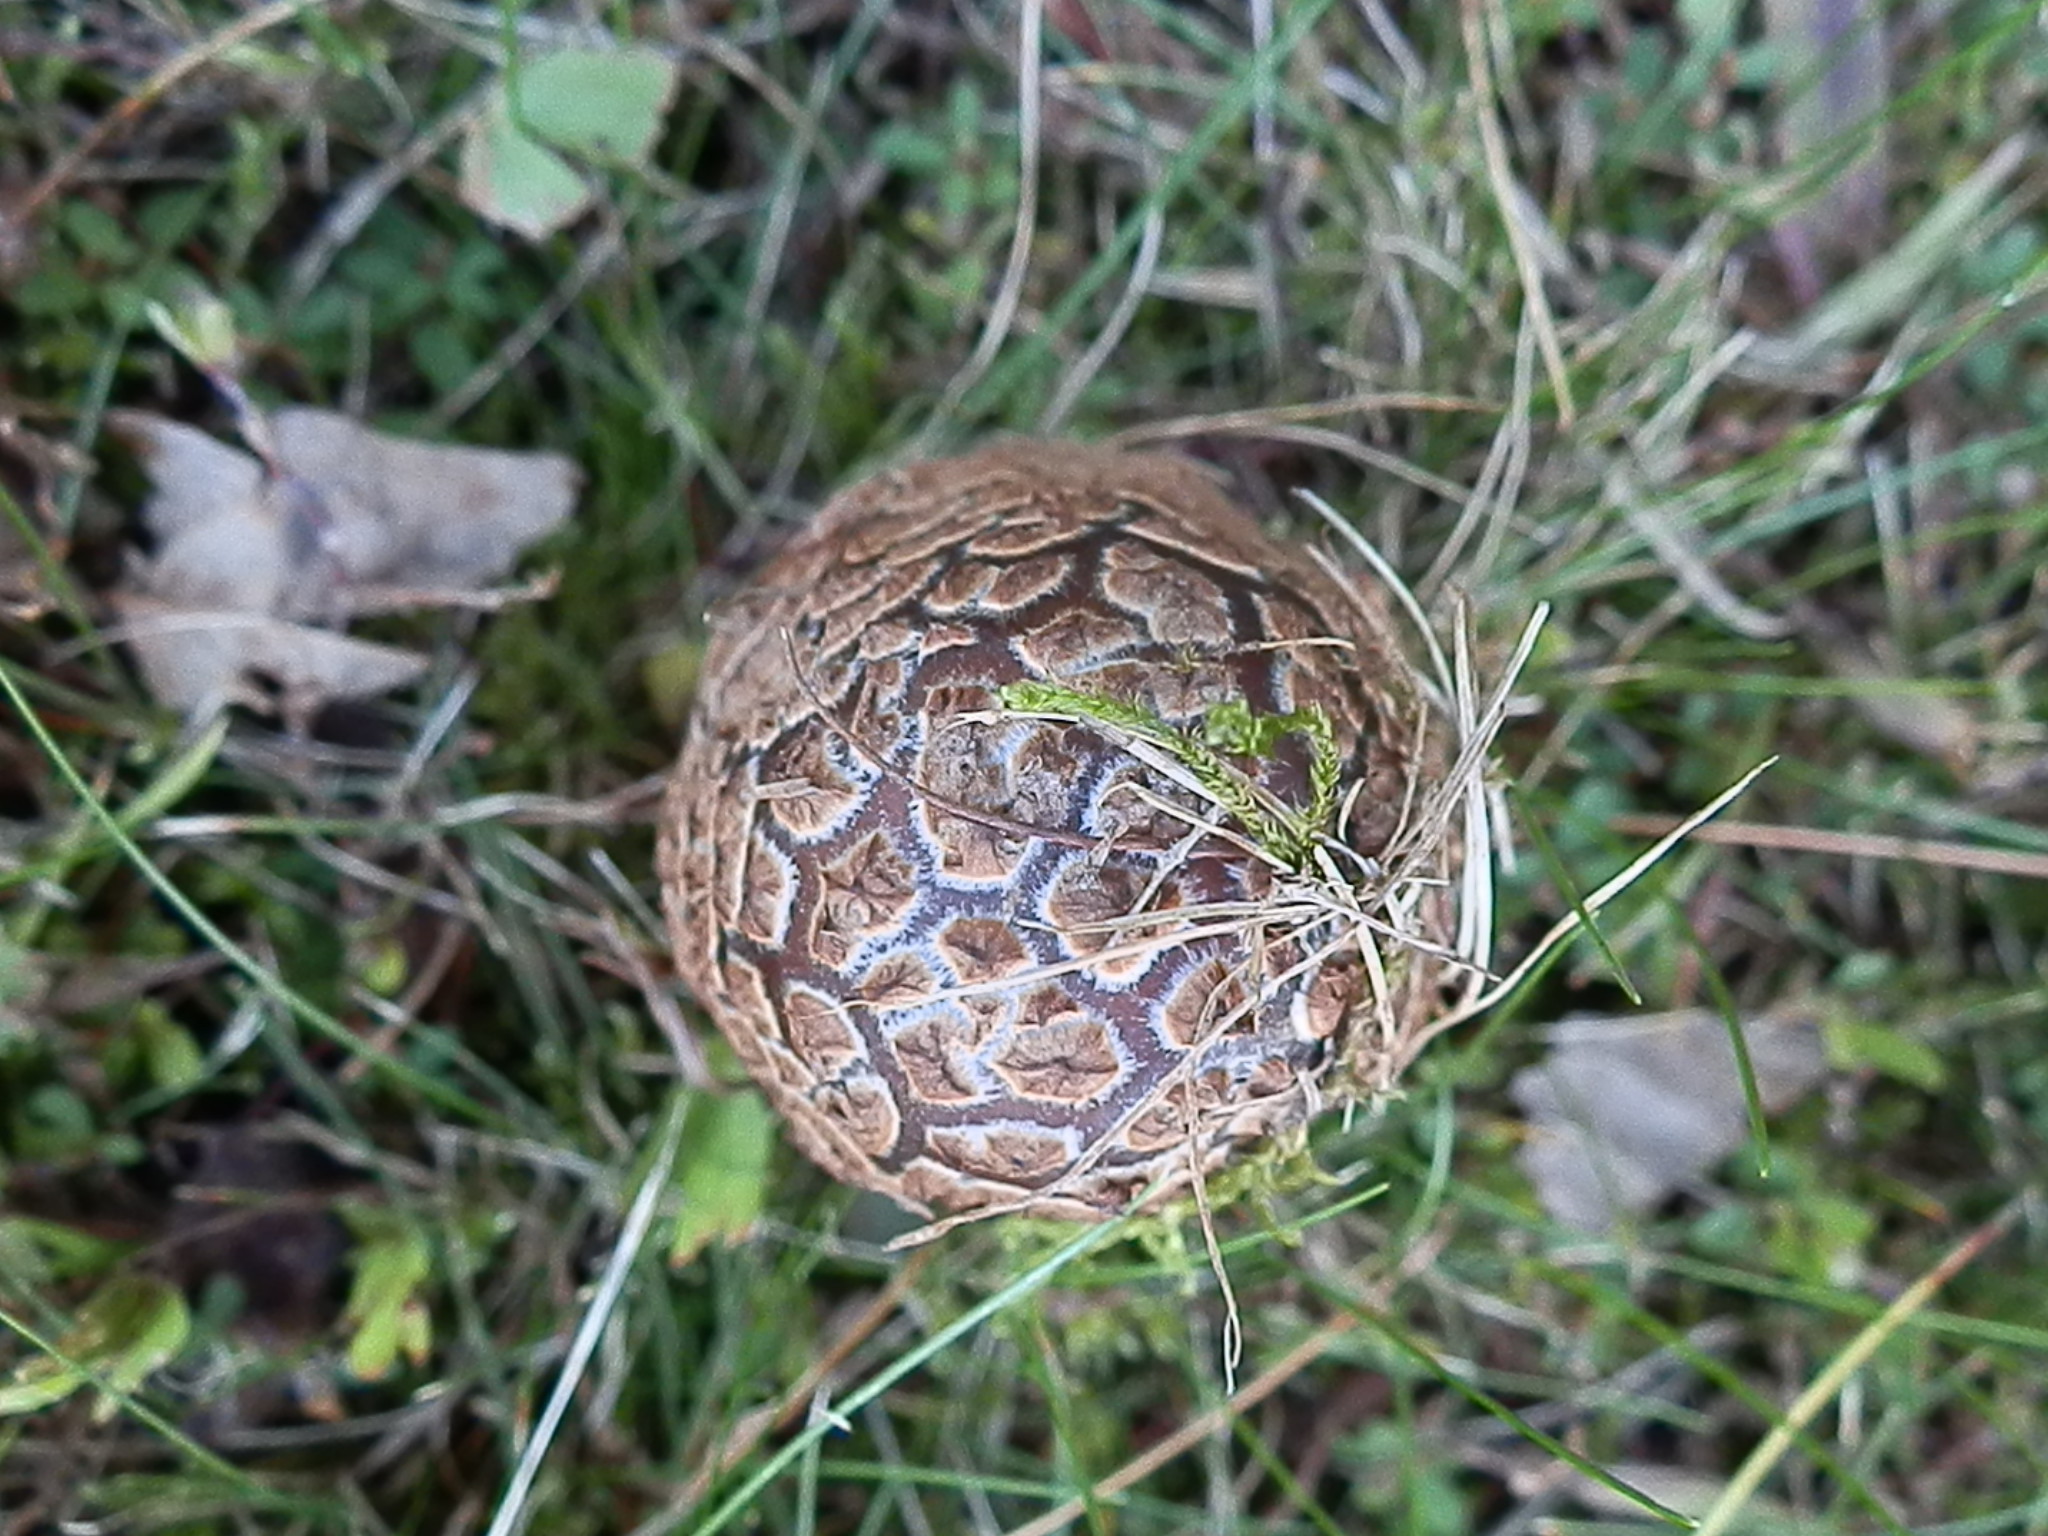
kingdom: Fungi
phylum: Basidiomycota
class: Agaricomycetes
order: Agaricales
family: Amanitaceae
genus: Amanita
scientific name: Amanita rubescens
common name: Blusher
